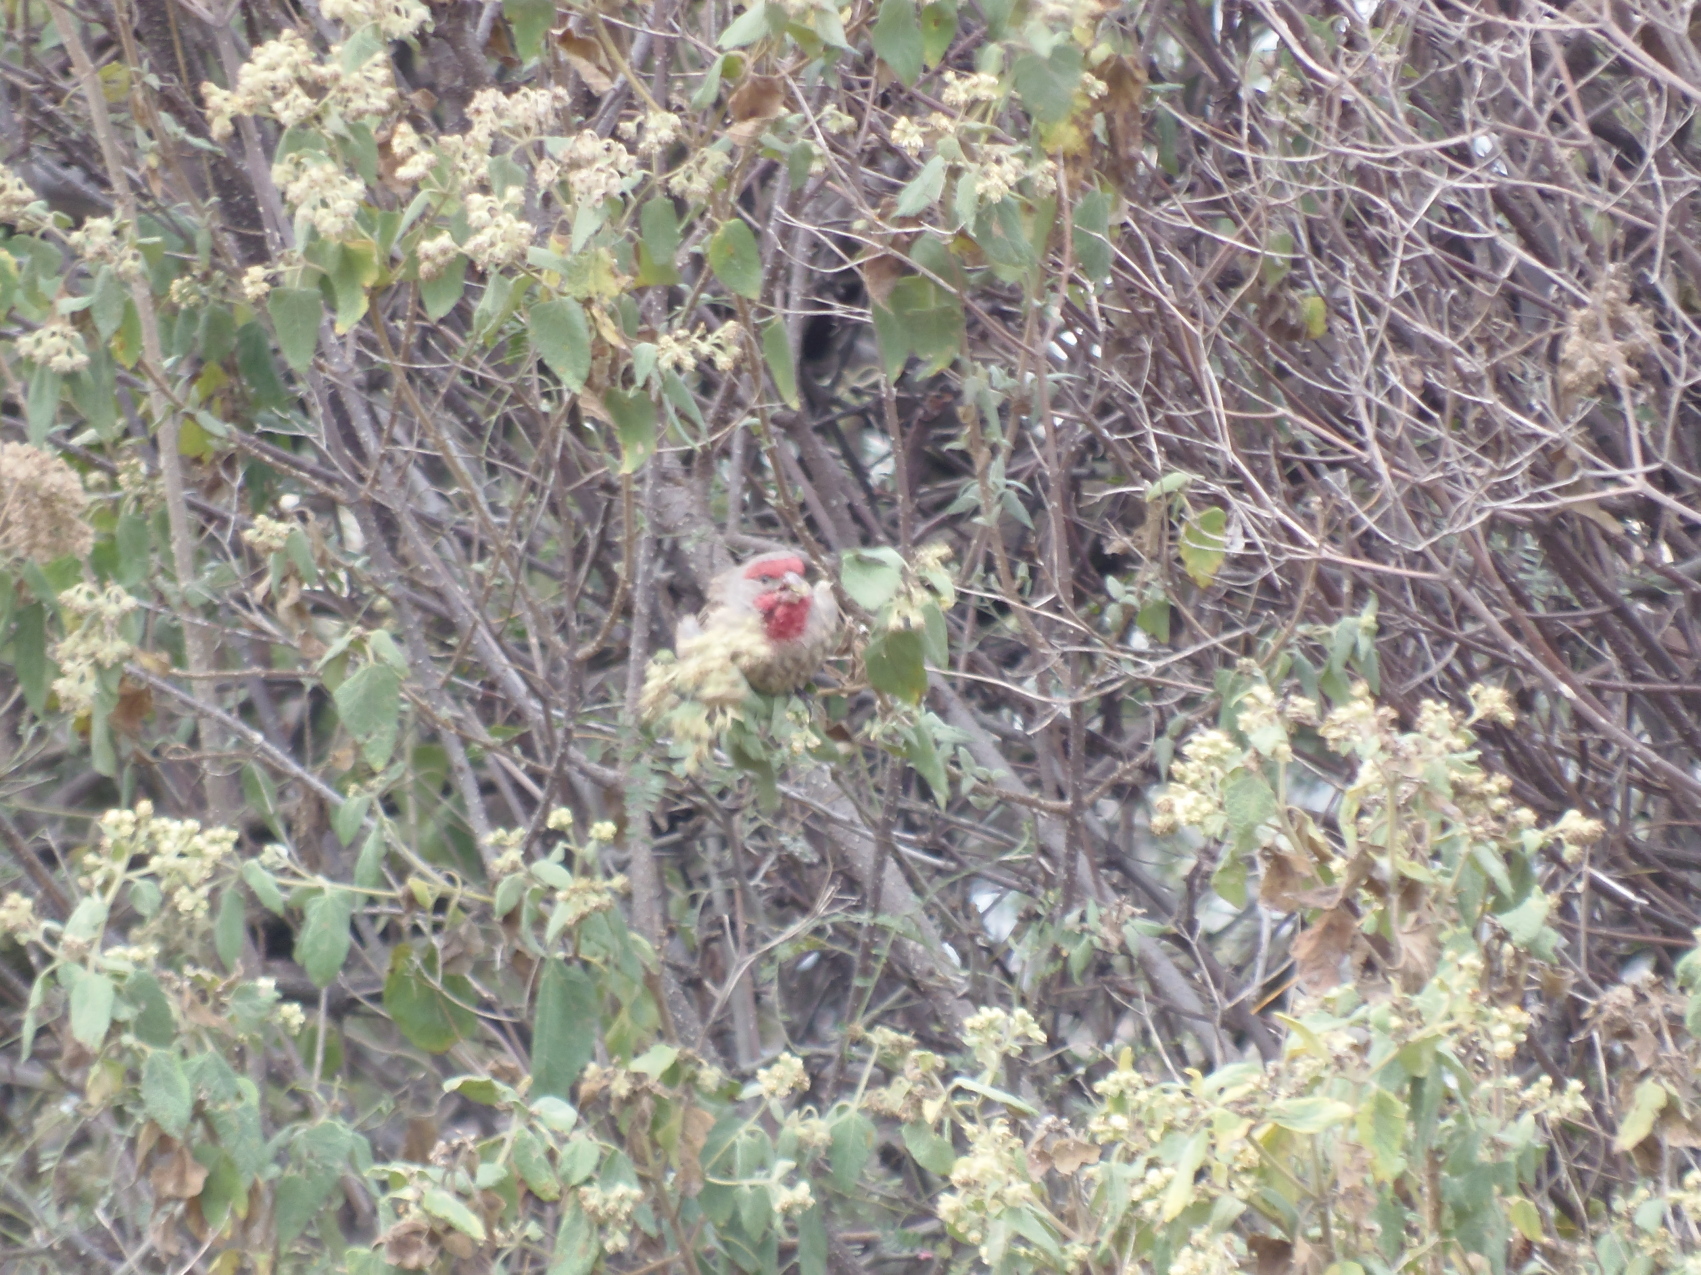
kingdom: Animalia
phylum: Chordata
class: Aves
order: Passeriformes
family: Fringillidae
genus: Haemorhous
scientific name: Haemorhous mexicanus
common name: House finch
